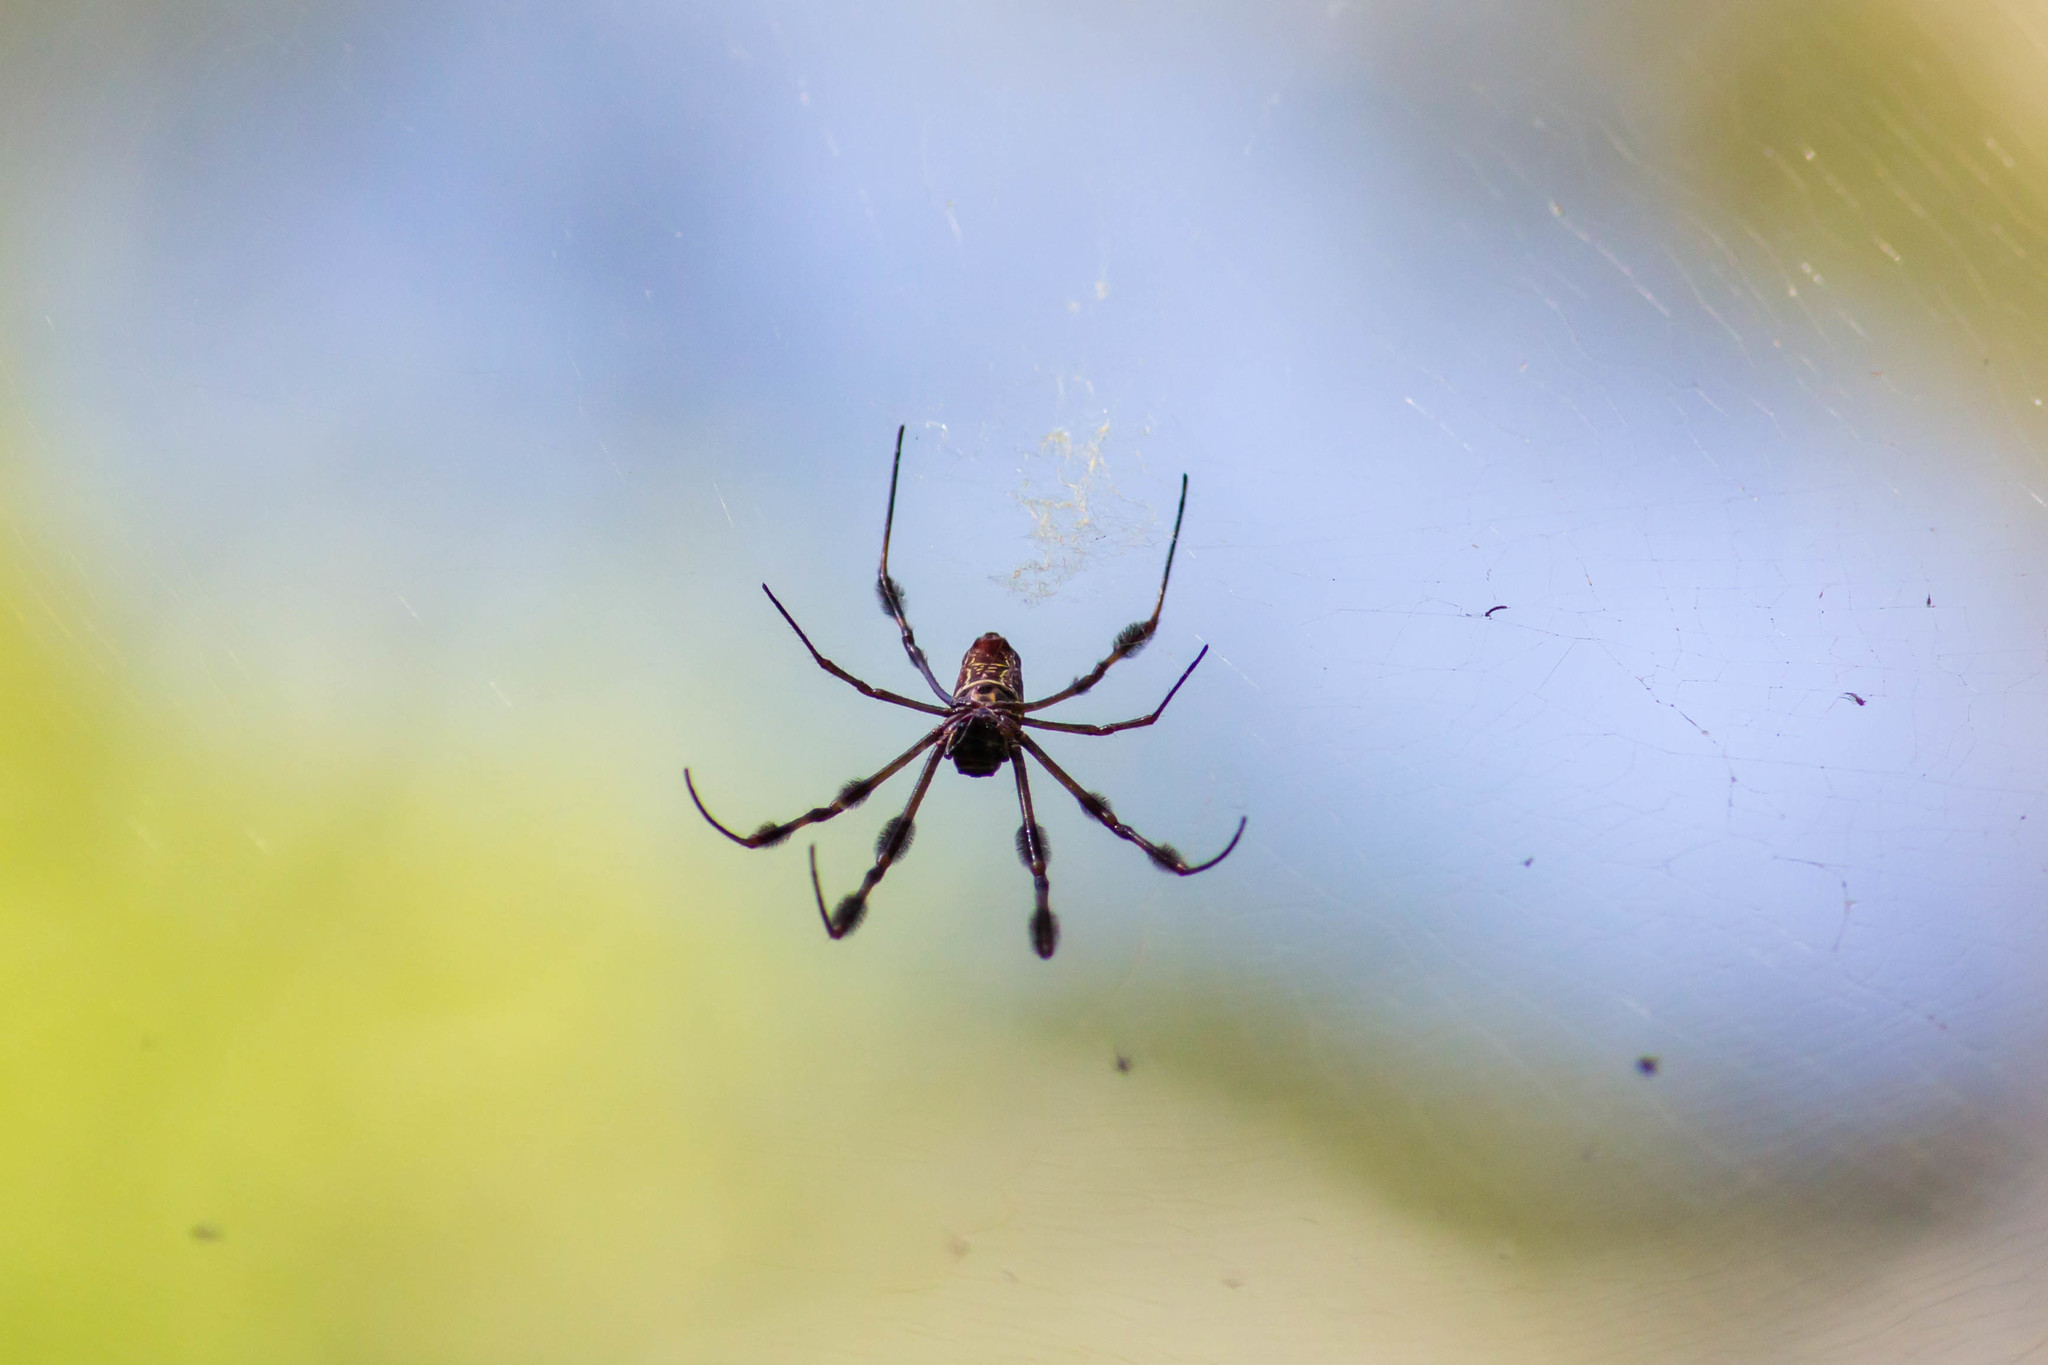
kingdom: Animalia
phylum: Arthropoda
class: Arachnida
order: Araneae
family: Araneidae
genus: Trichonephila
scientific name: Trichonephila clavipes
